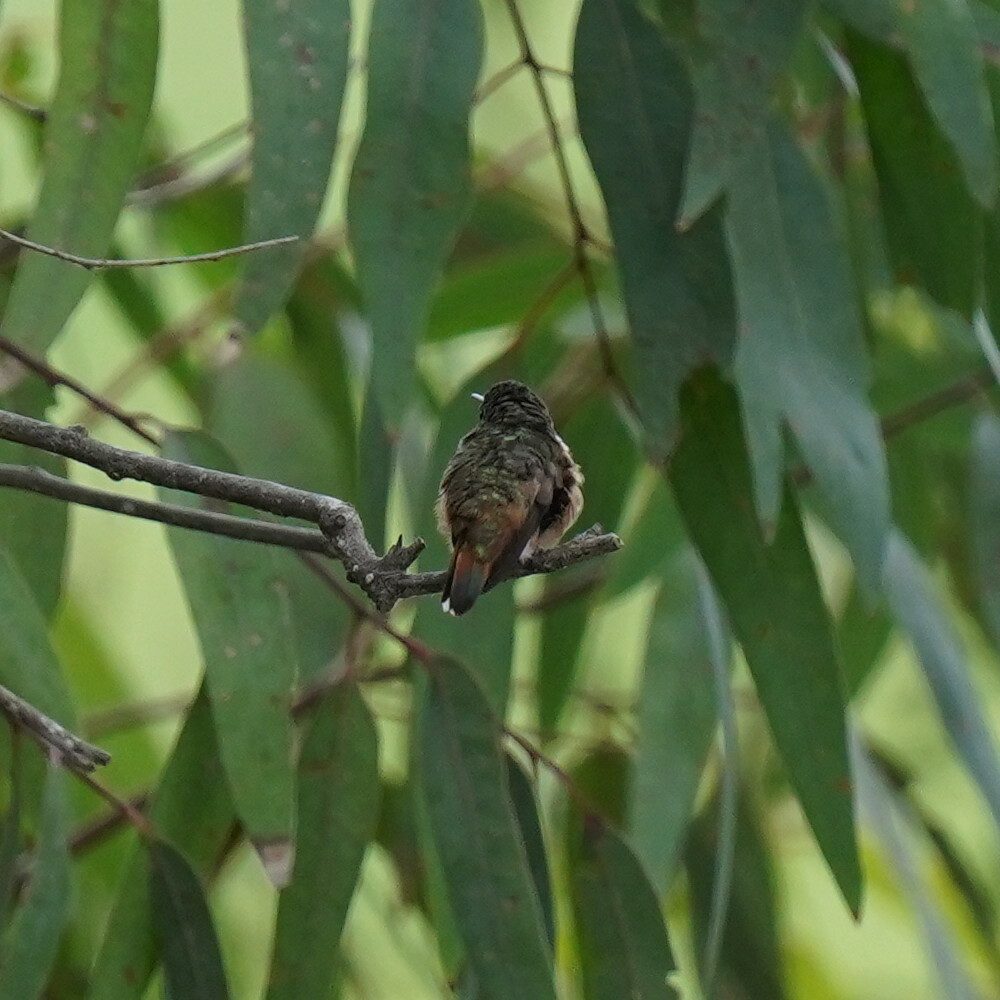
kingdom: Animalia
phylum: Chordata
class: Aves
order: Apodiformes
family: Trochilidae
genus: Selasphorus
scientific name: Selasphorus sasin
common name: Allen's hummingbird
